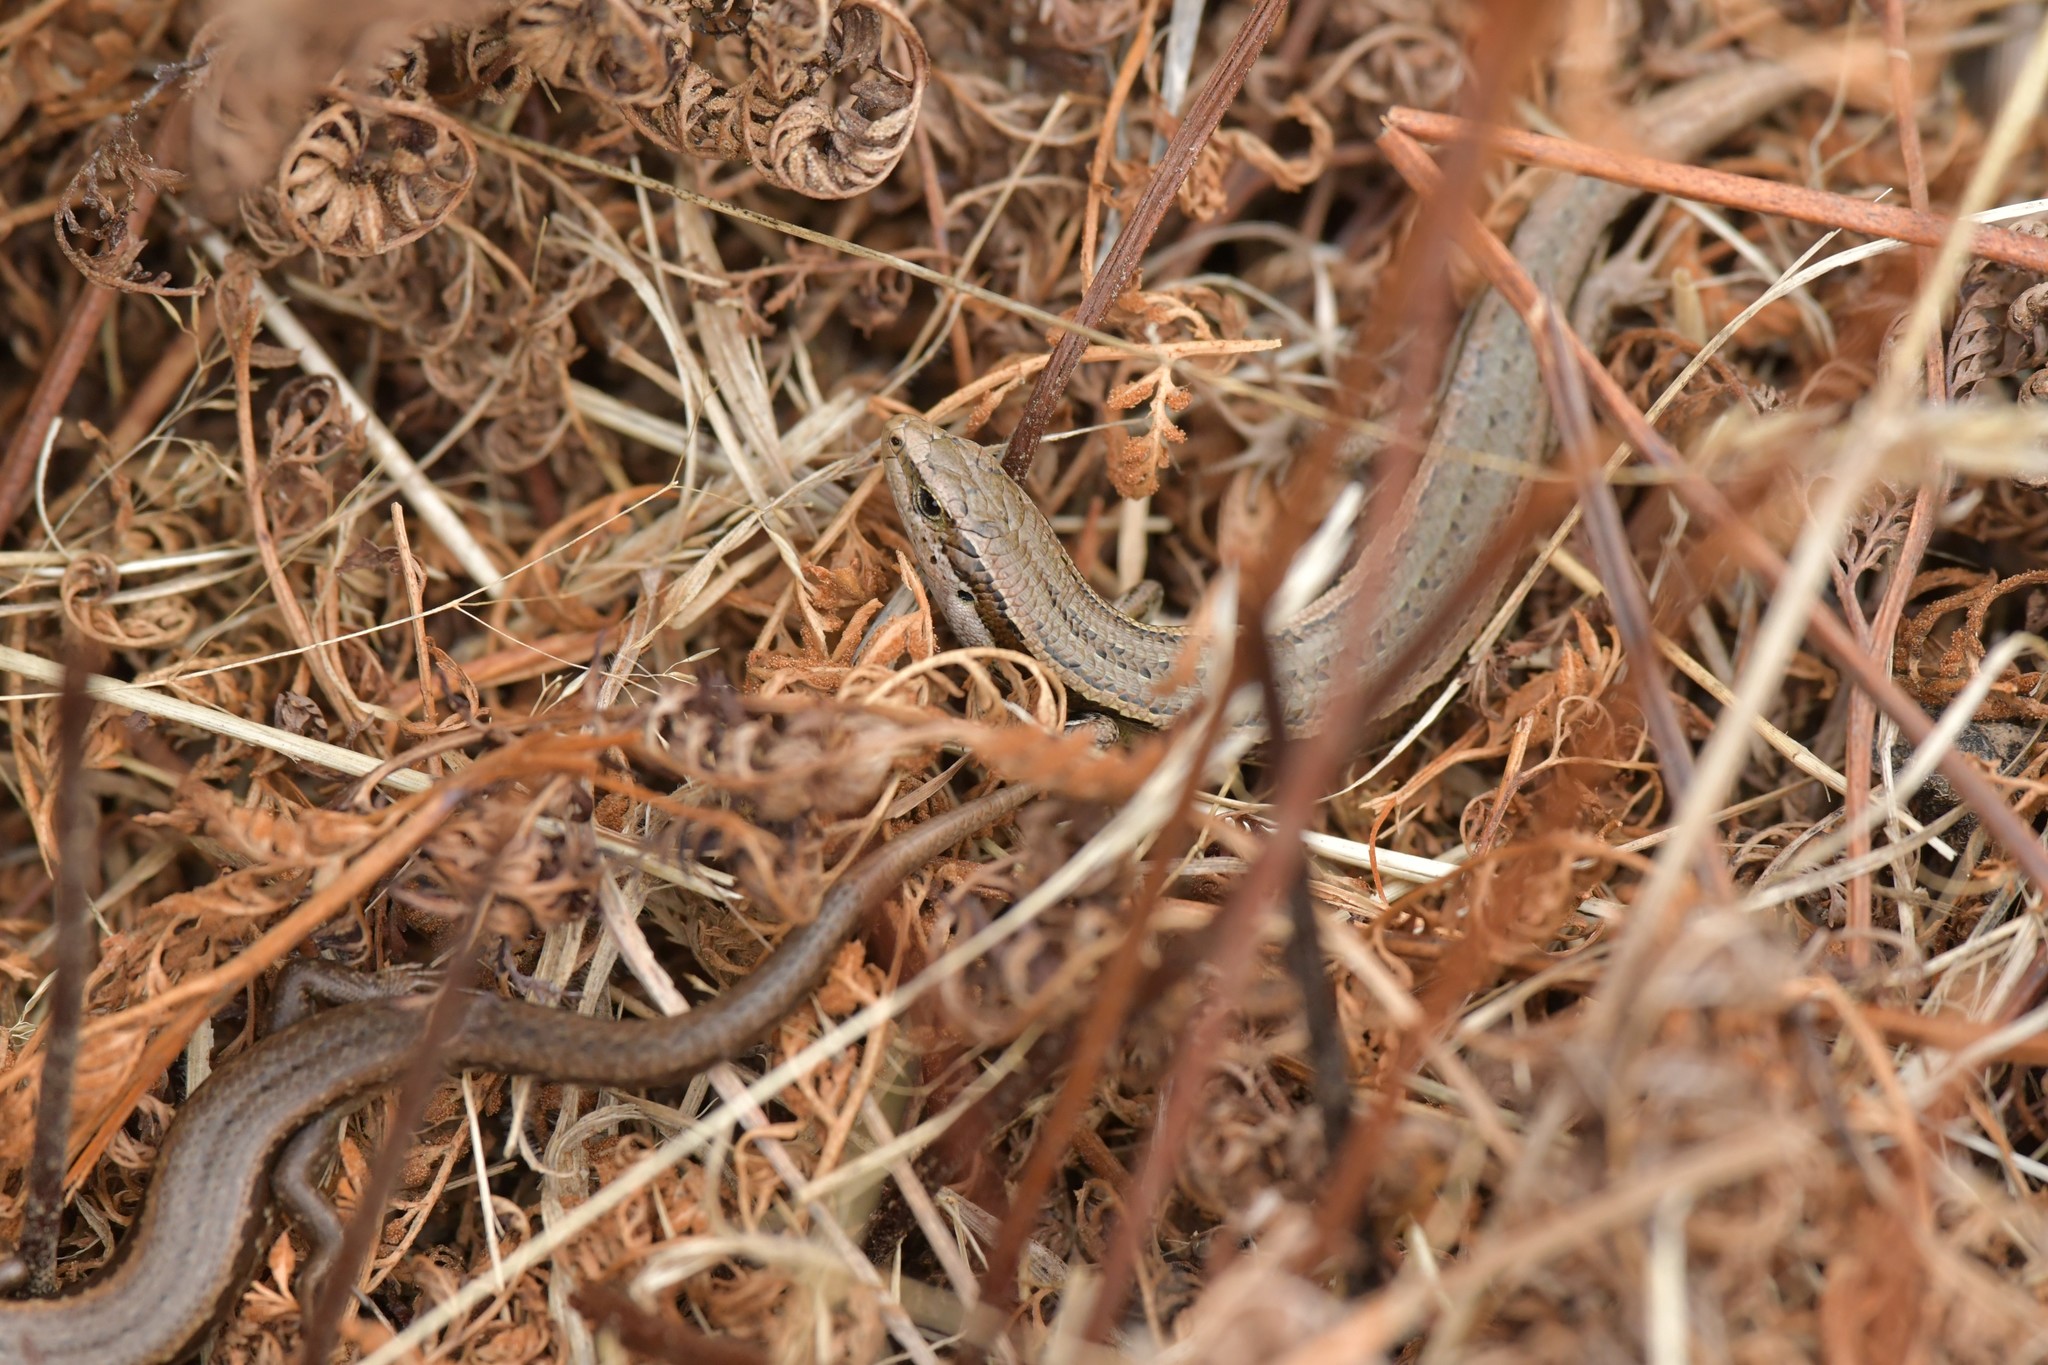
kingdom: Animalia
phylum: Chordata
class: Squamata
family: Scincidae
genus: Oligosoma
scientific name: Oligosoma polychroma
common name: Common new zealand skink
